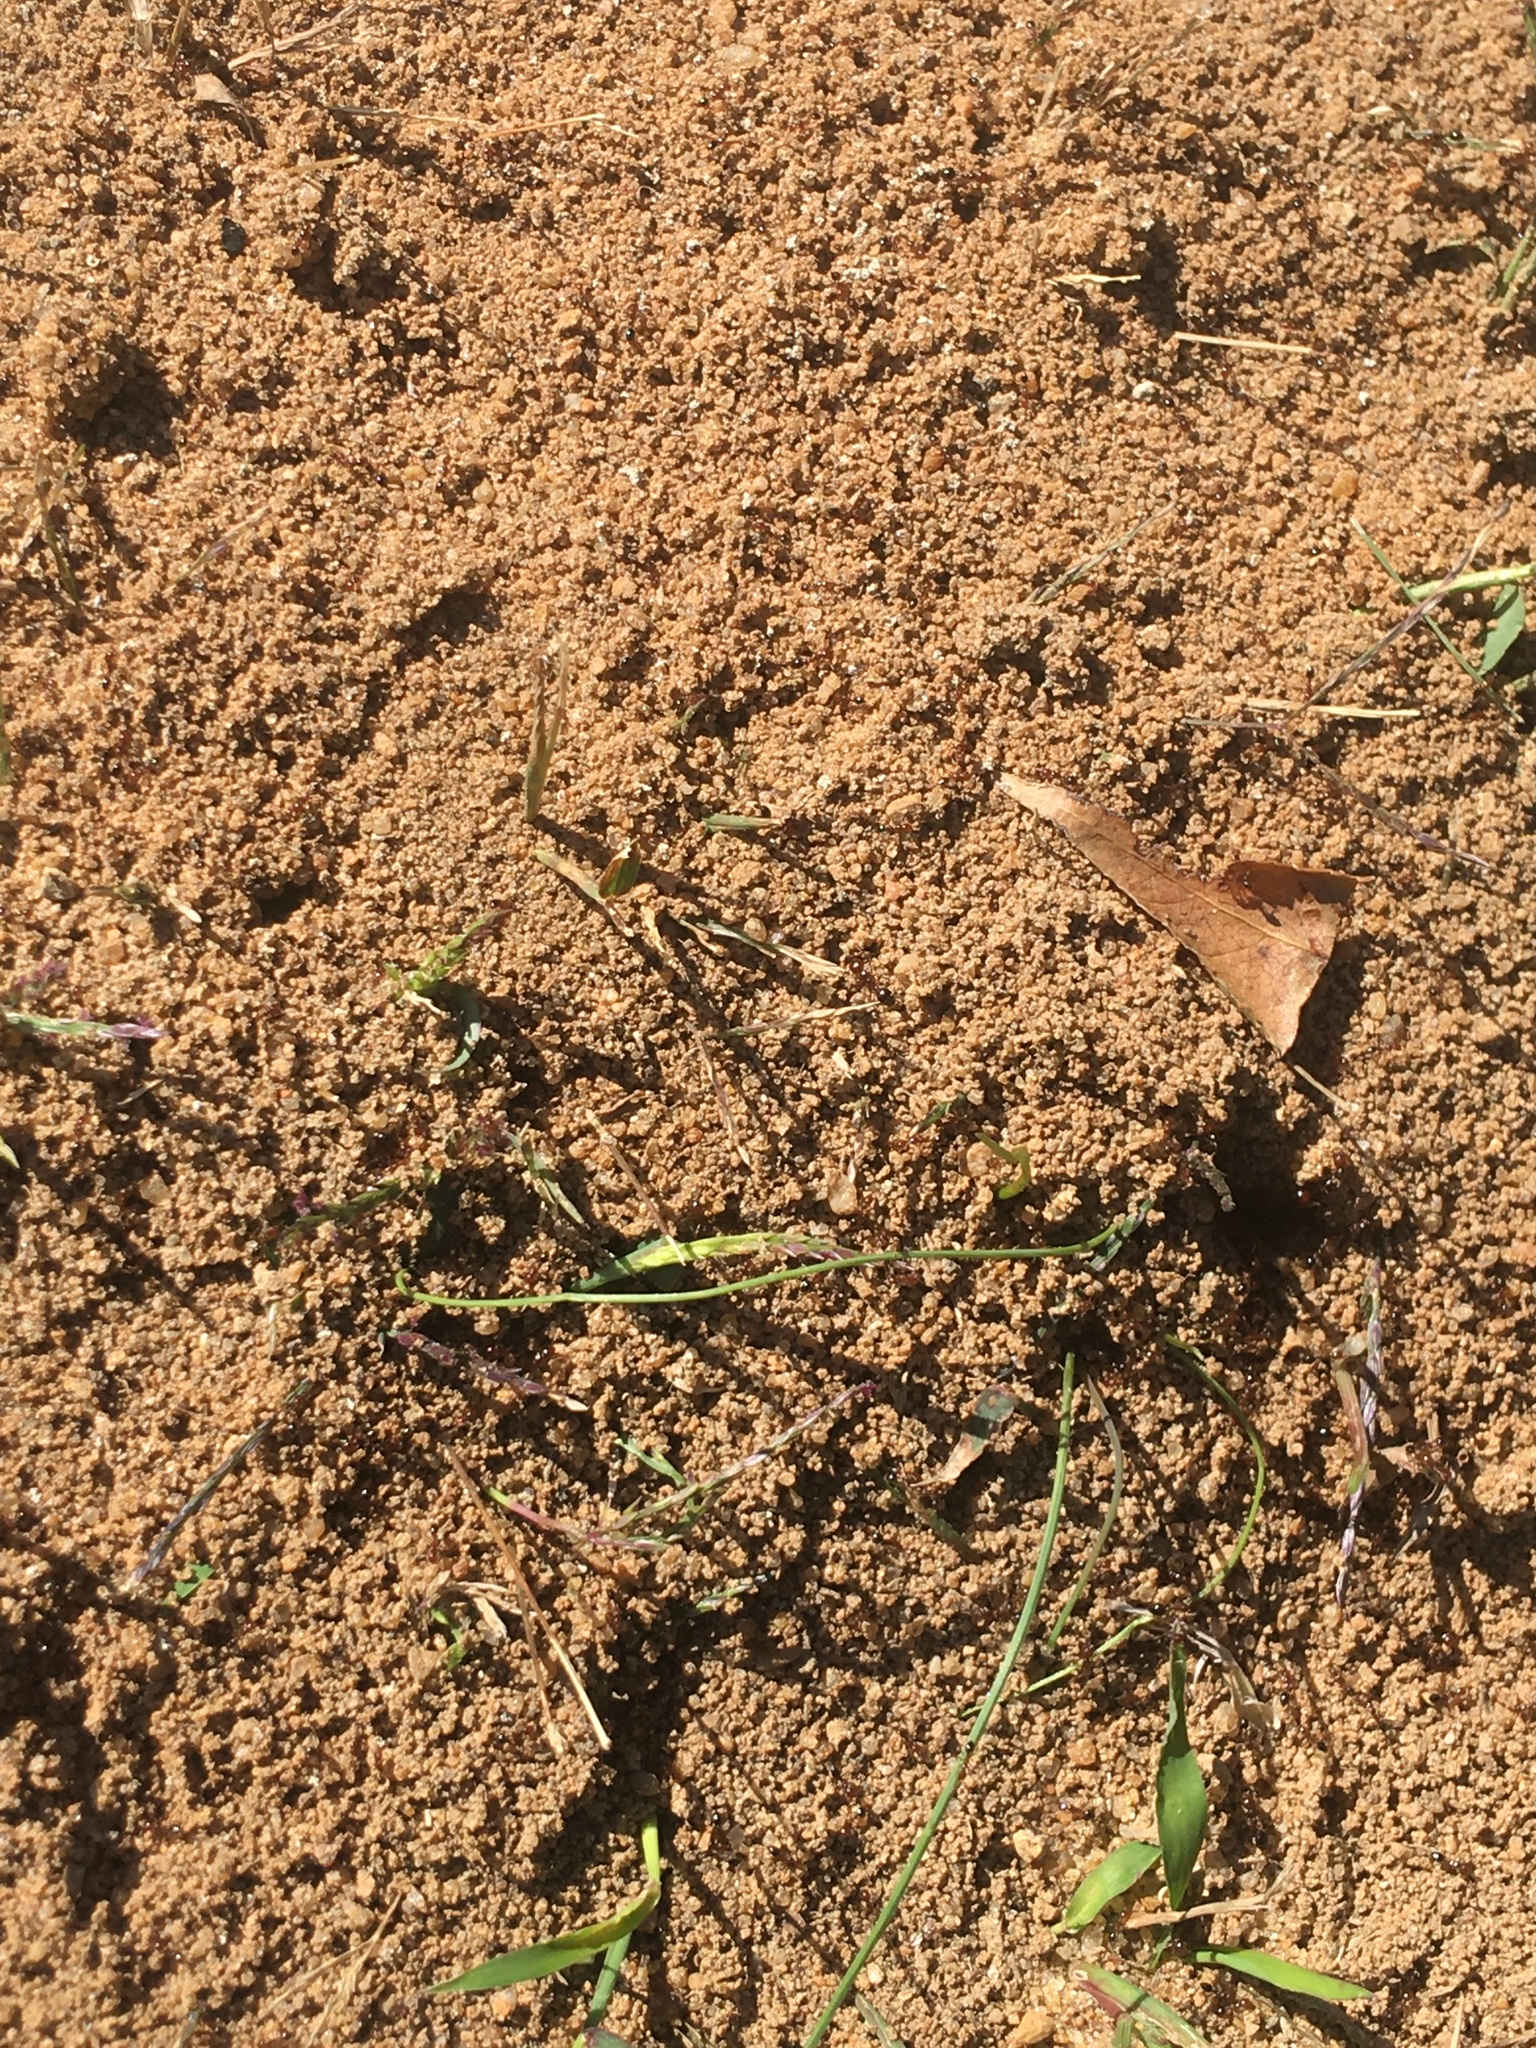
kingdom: Animalia
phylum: Arthropoda
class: Insecta
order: Hymenoptera
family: Formicidae
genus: Solenopsis
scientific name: Solenopsis invicta
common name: Red imported fire ant
